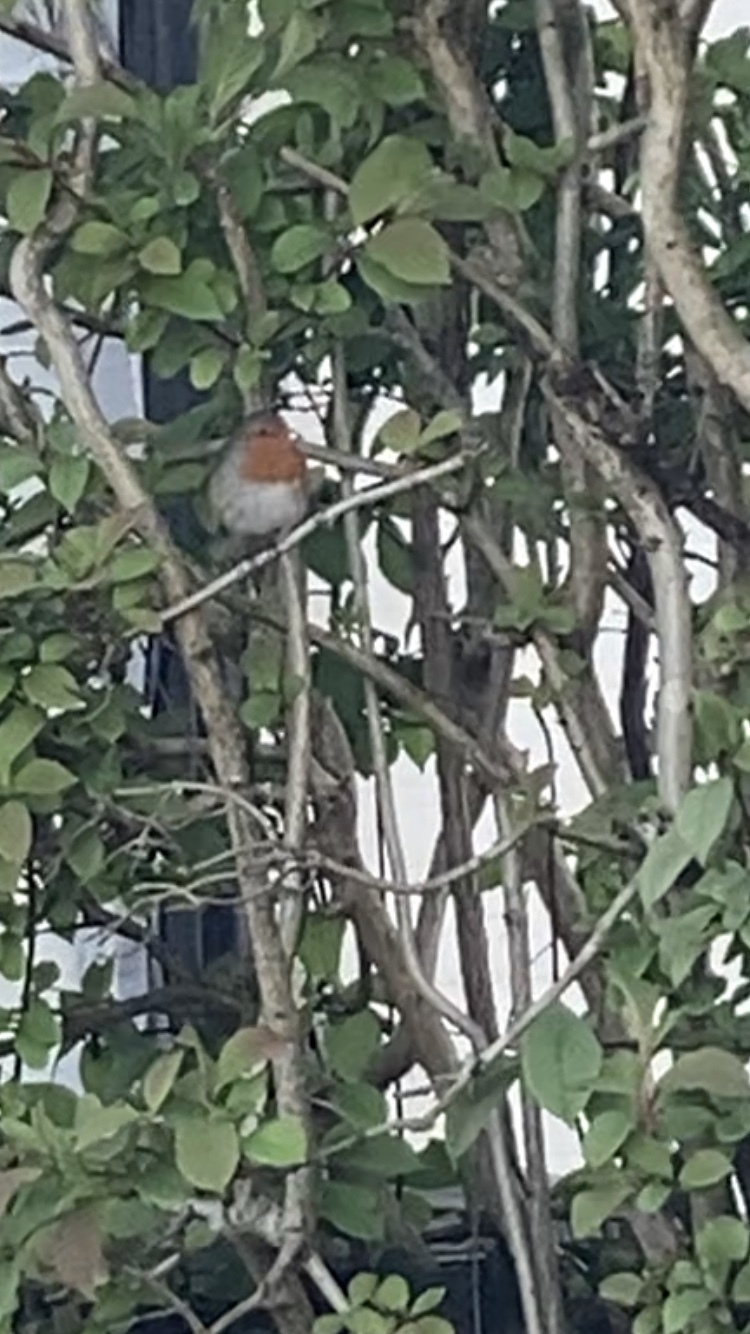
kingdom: Animalia
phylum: Chordata
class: Aves
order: Passeriformes
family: Muscicapidae
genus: Erithacus
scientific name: Erithacus rubecula
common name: European robin
